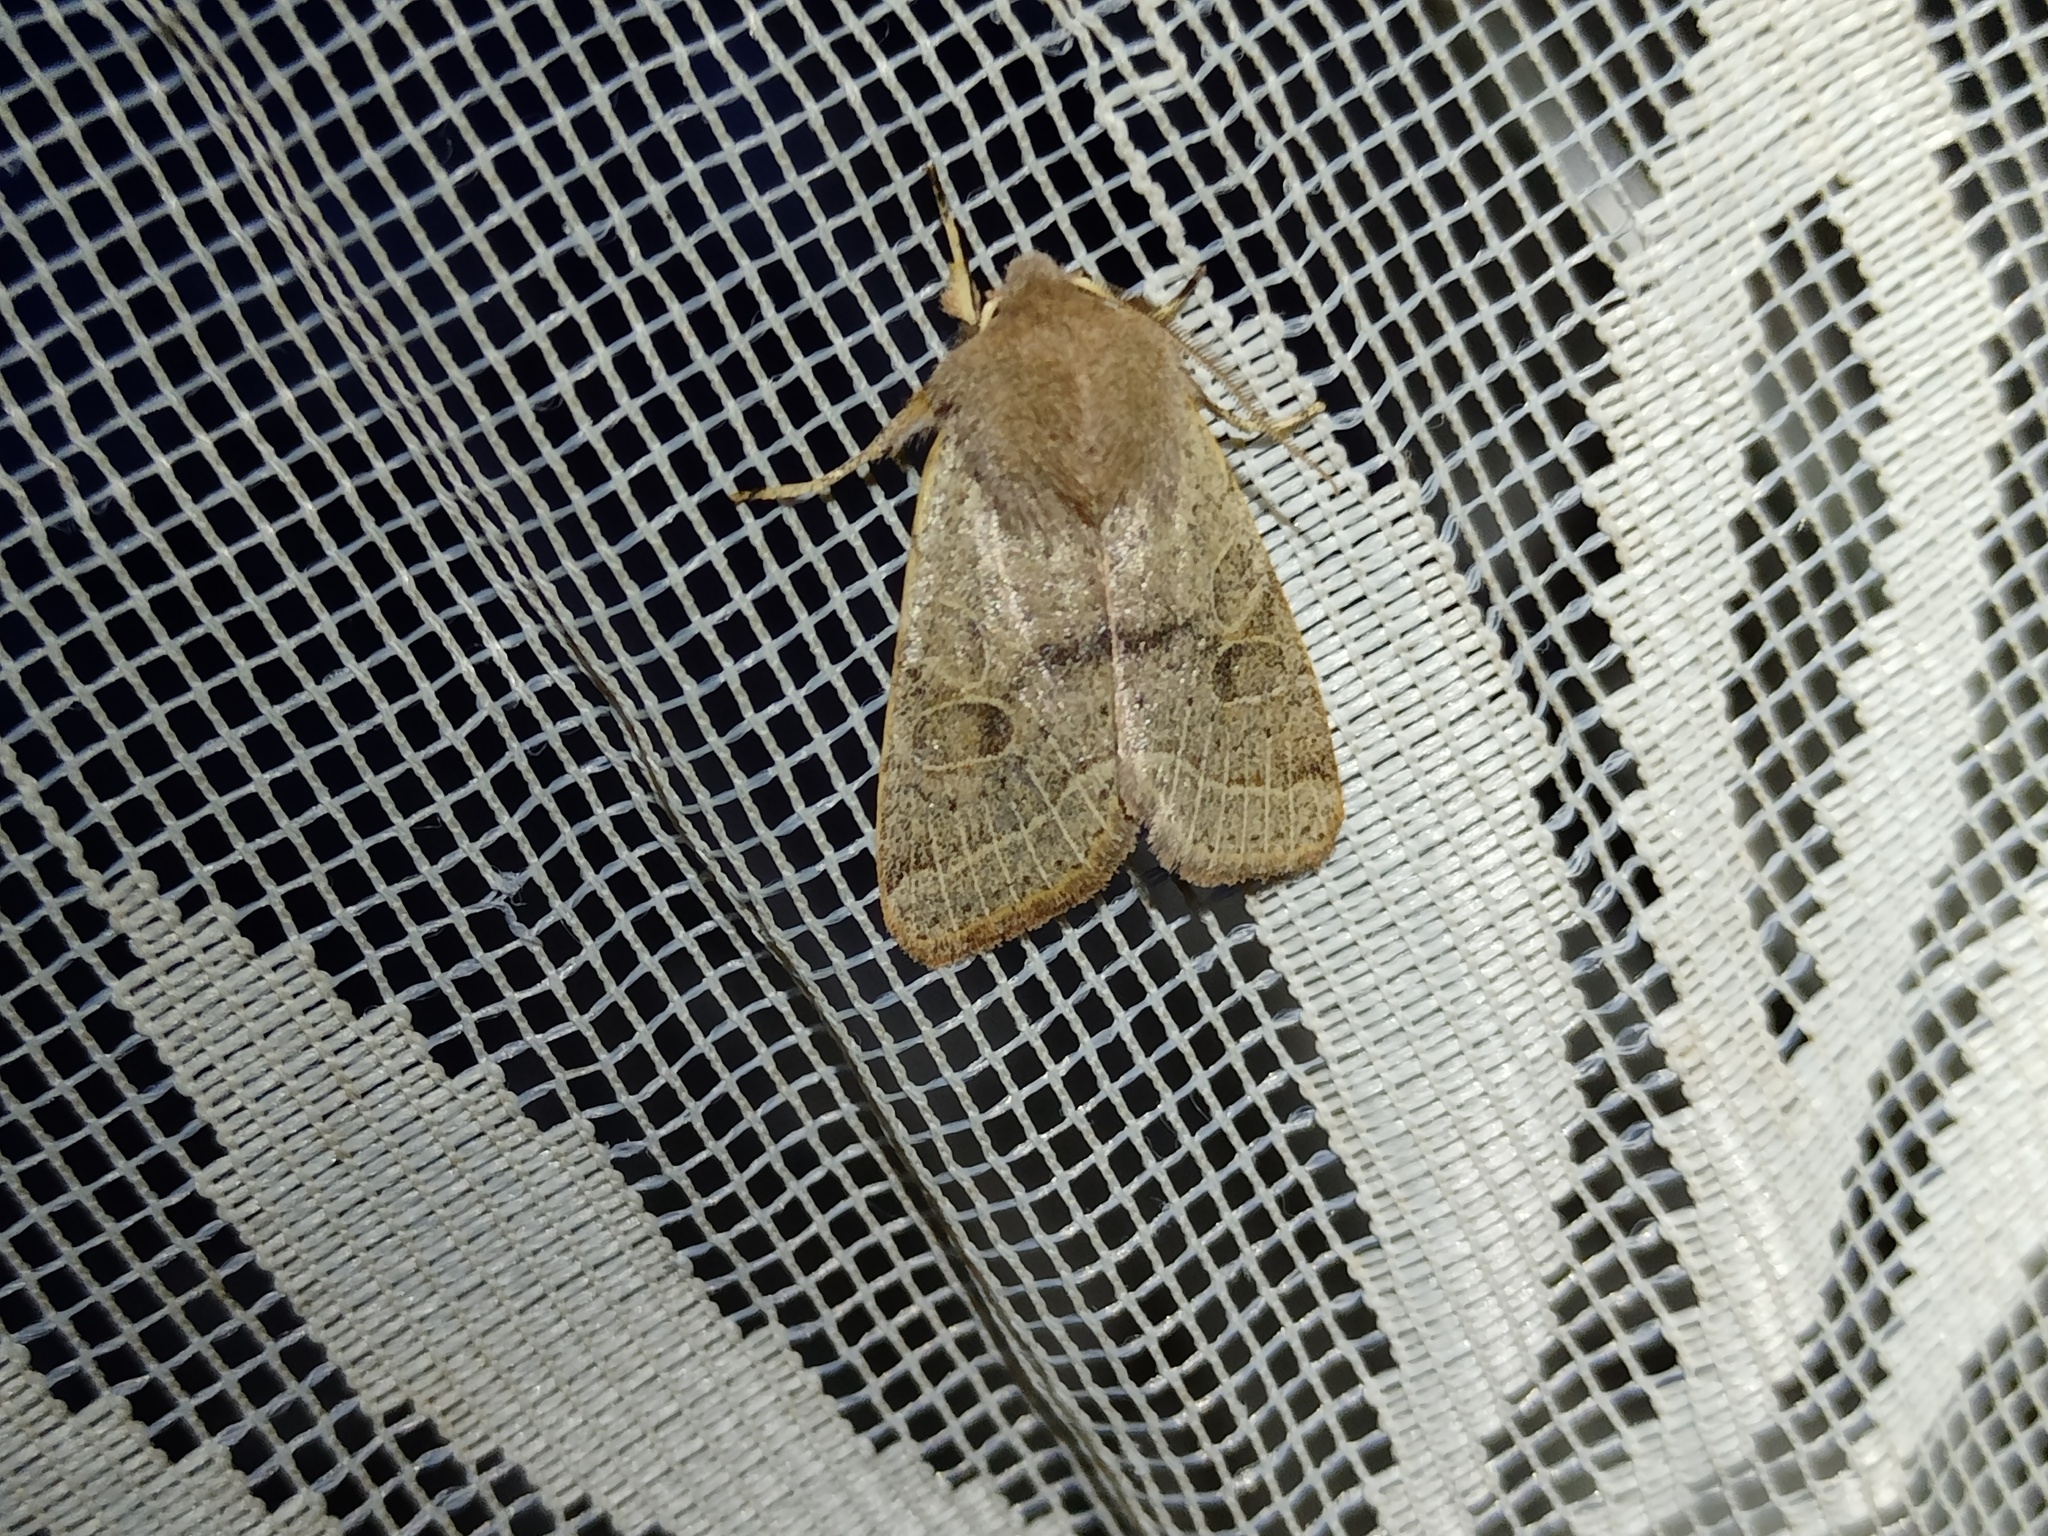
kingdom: Animalia
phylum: Arthropoda
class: Insecta
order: Lepidoptera
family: Noctuidae
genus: Orthosia
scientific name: Orthosia cerasi
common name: Common quaker
